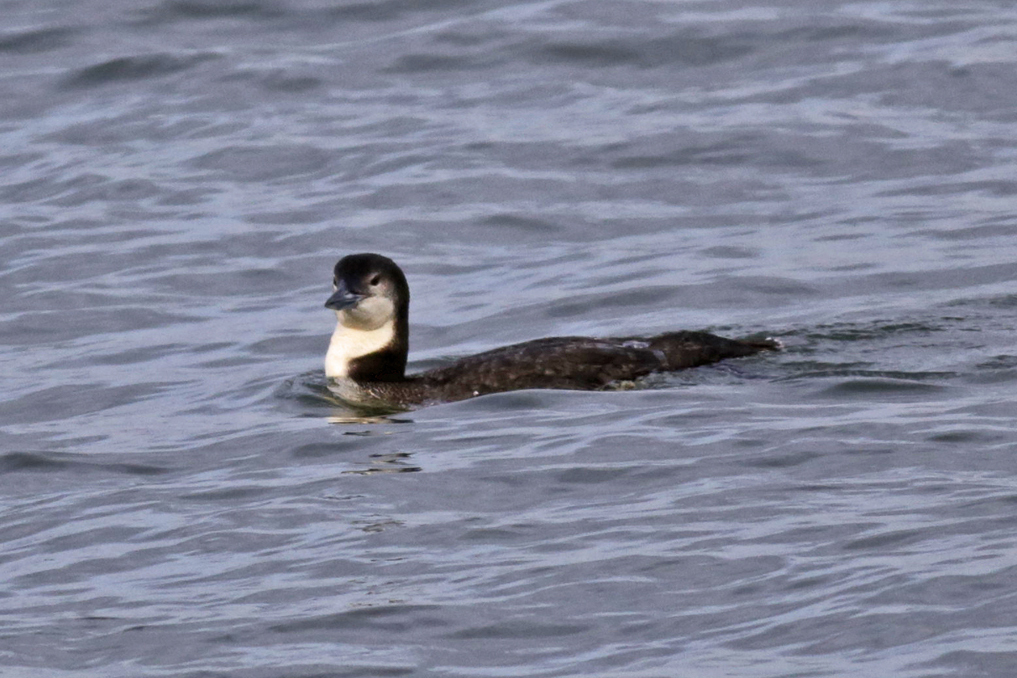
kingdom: Animalia
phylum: Chordata
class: Aves
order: Gaviiformes
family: Gaviidae
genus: Gavia
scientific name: Gavia immer
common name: Common loon
